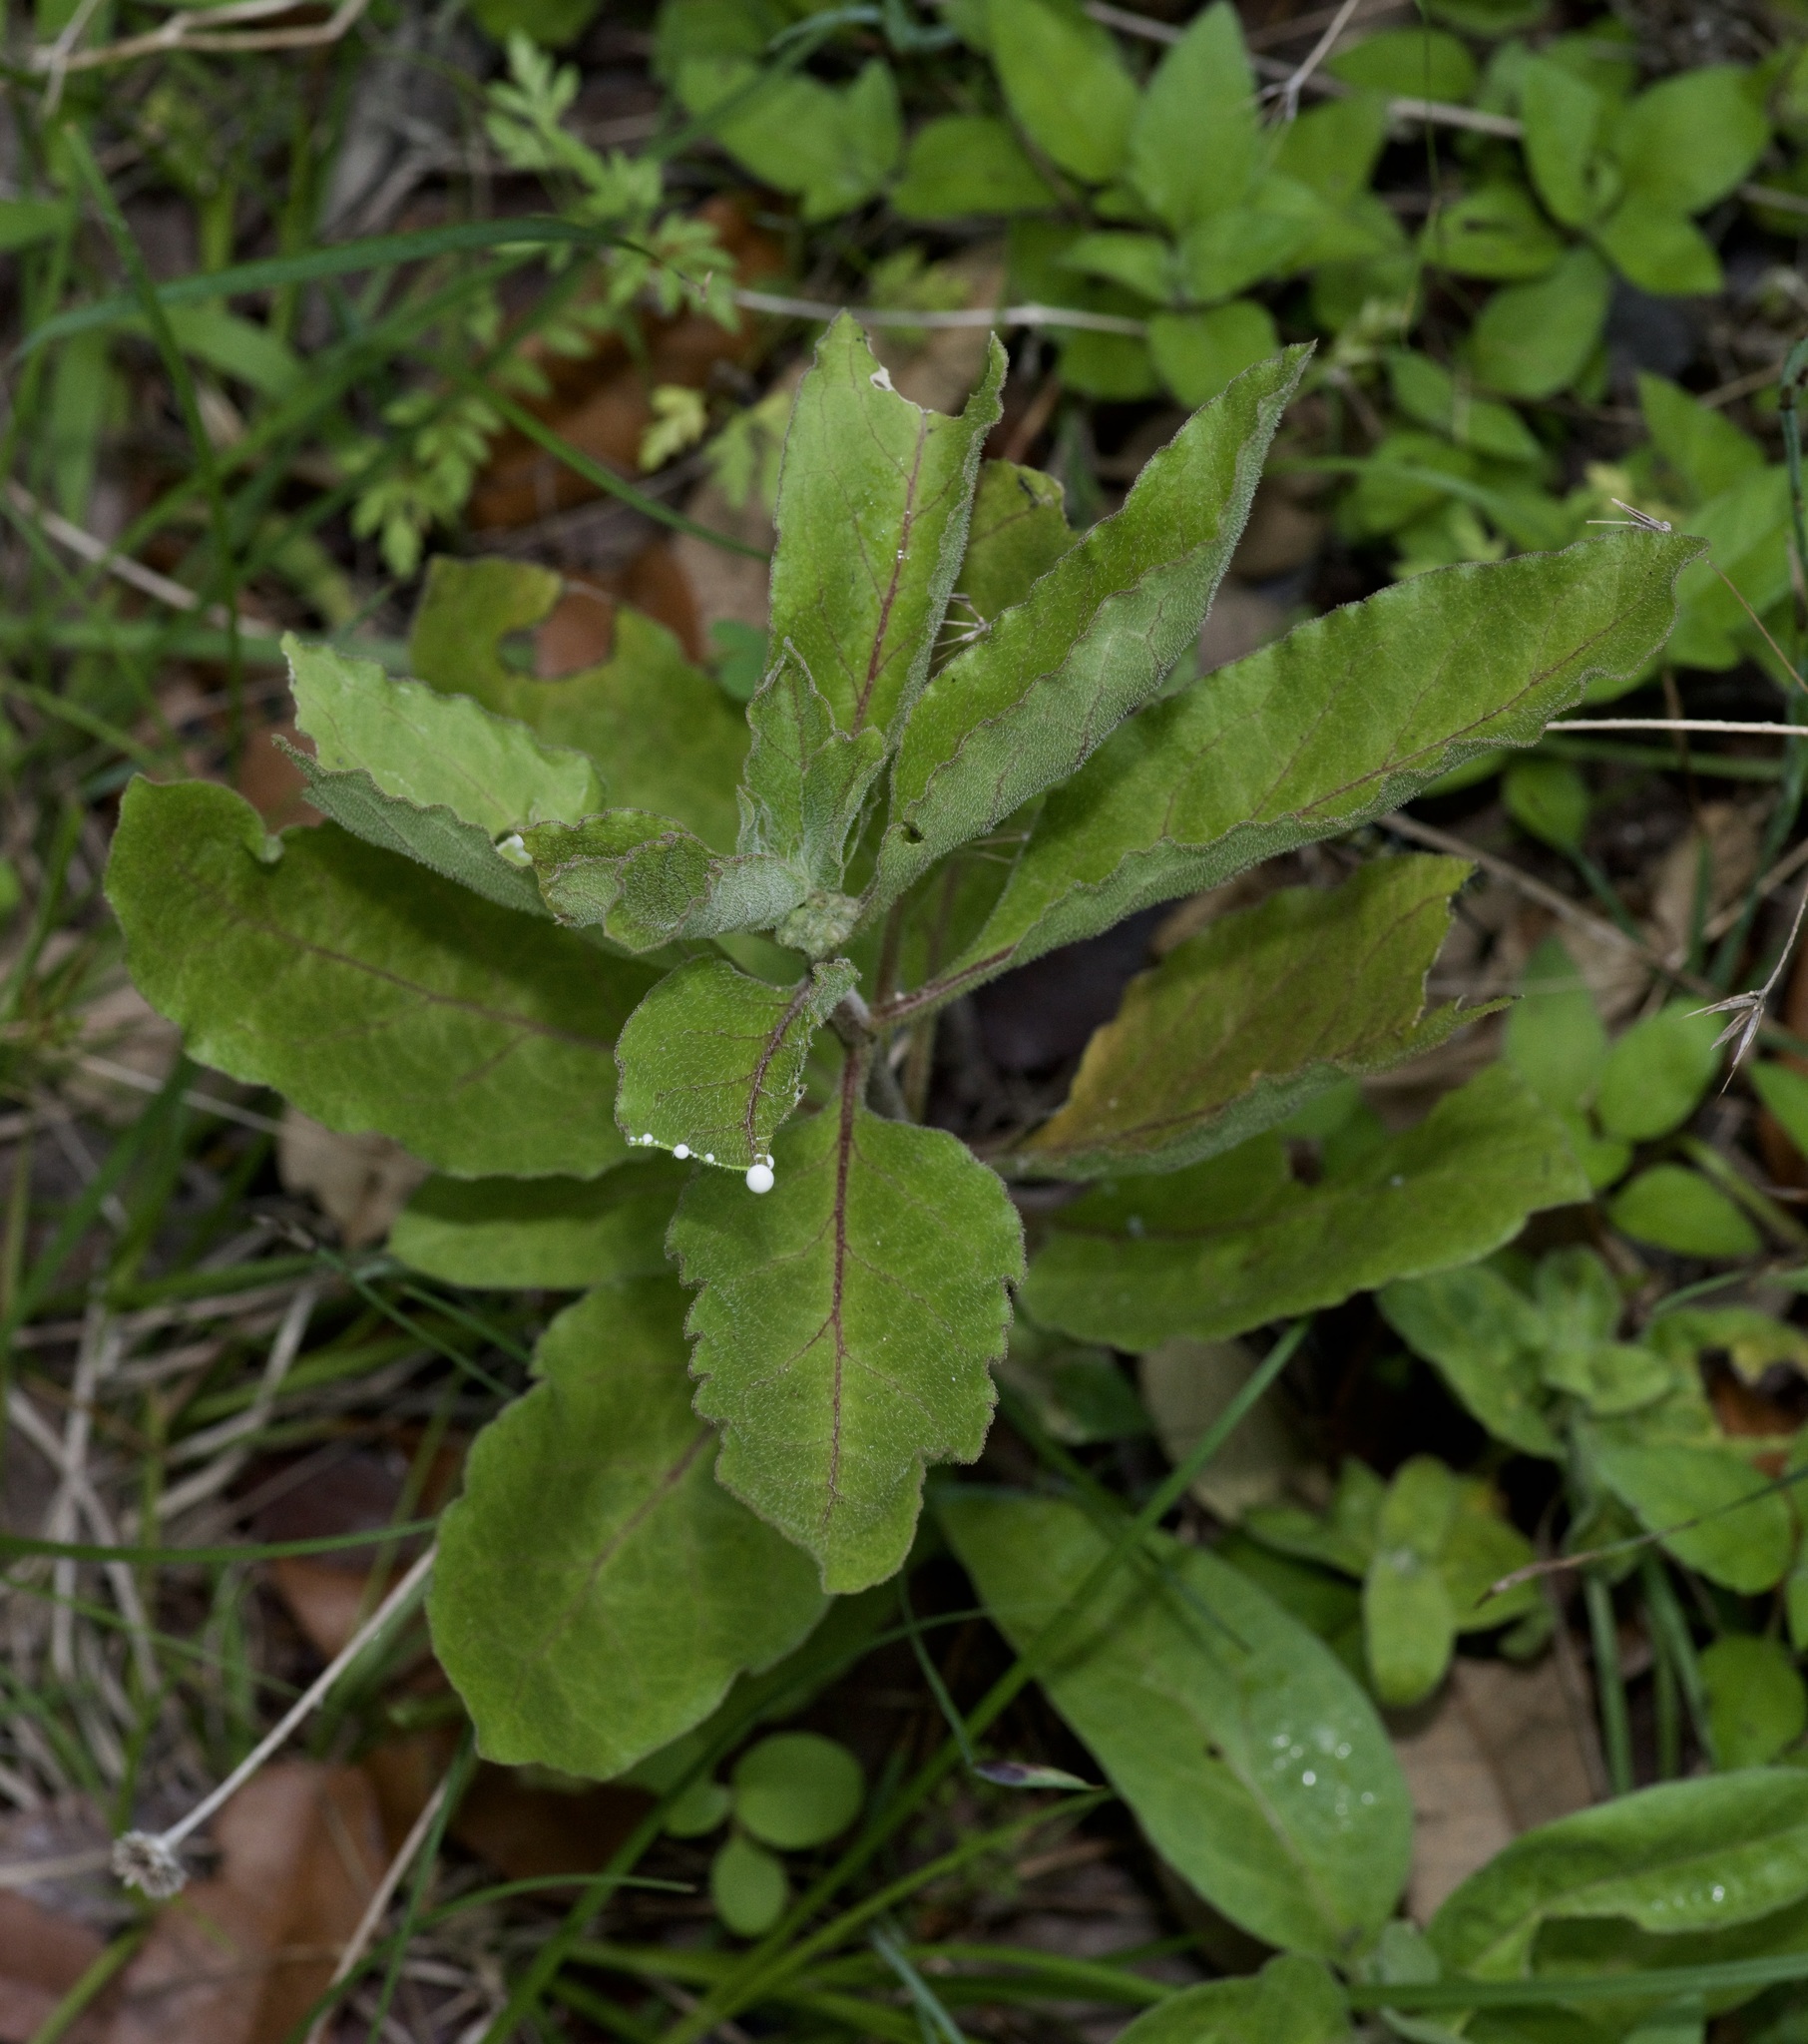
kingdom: Plantae
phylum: Tracheophyta
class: Magnoliopsida
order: Gentianales
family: Apocynaceae
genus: Asclepias
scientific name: Asclepias oenotheroides
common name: Zizotes milkweed
